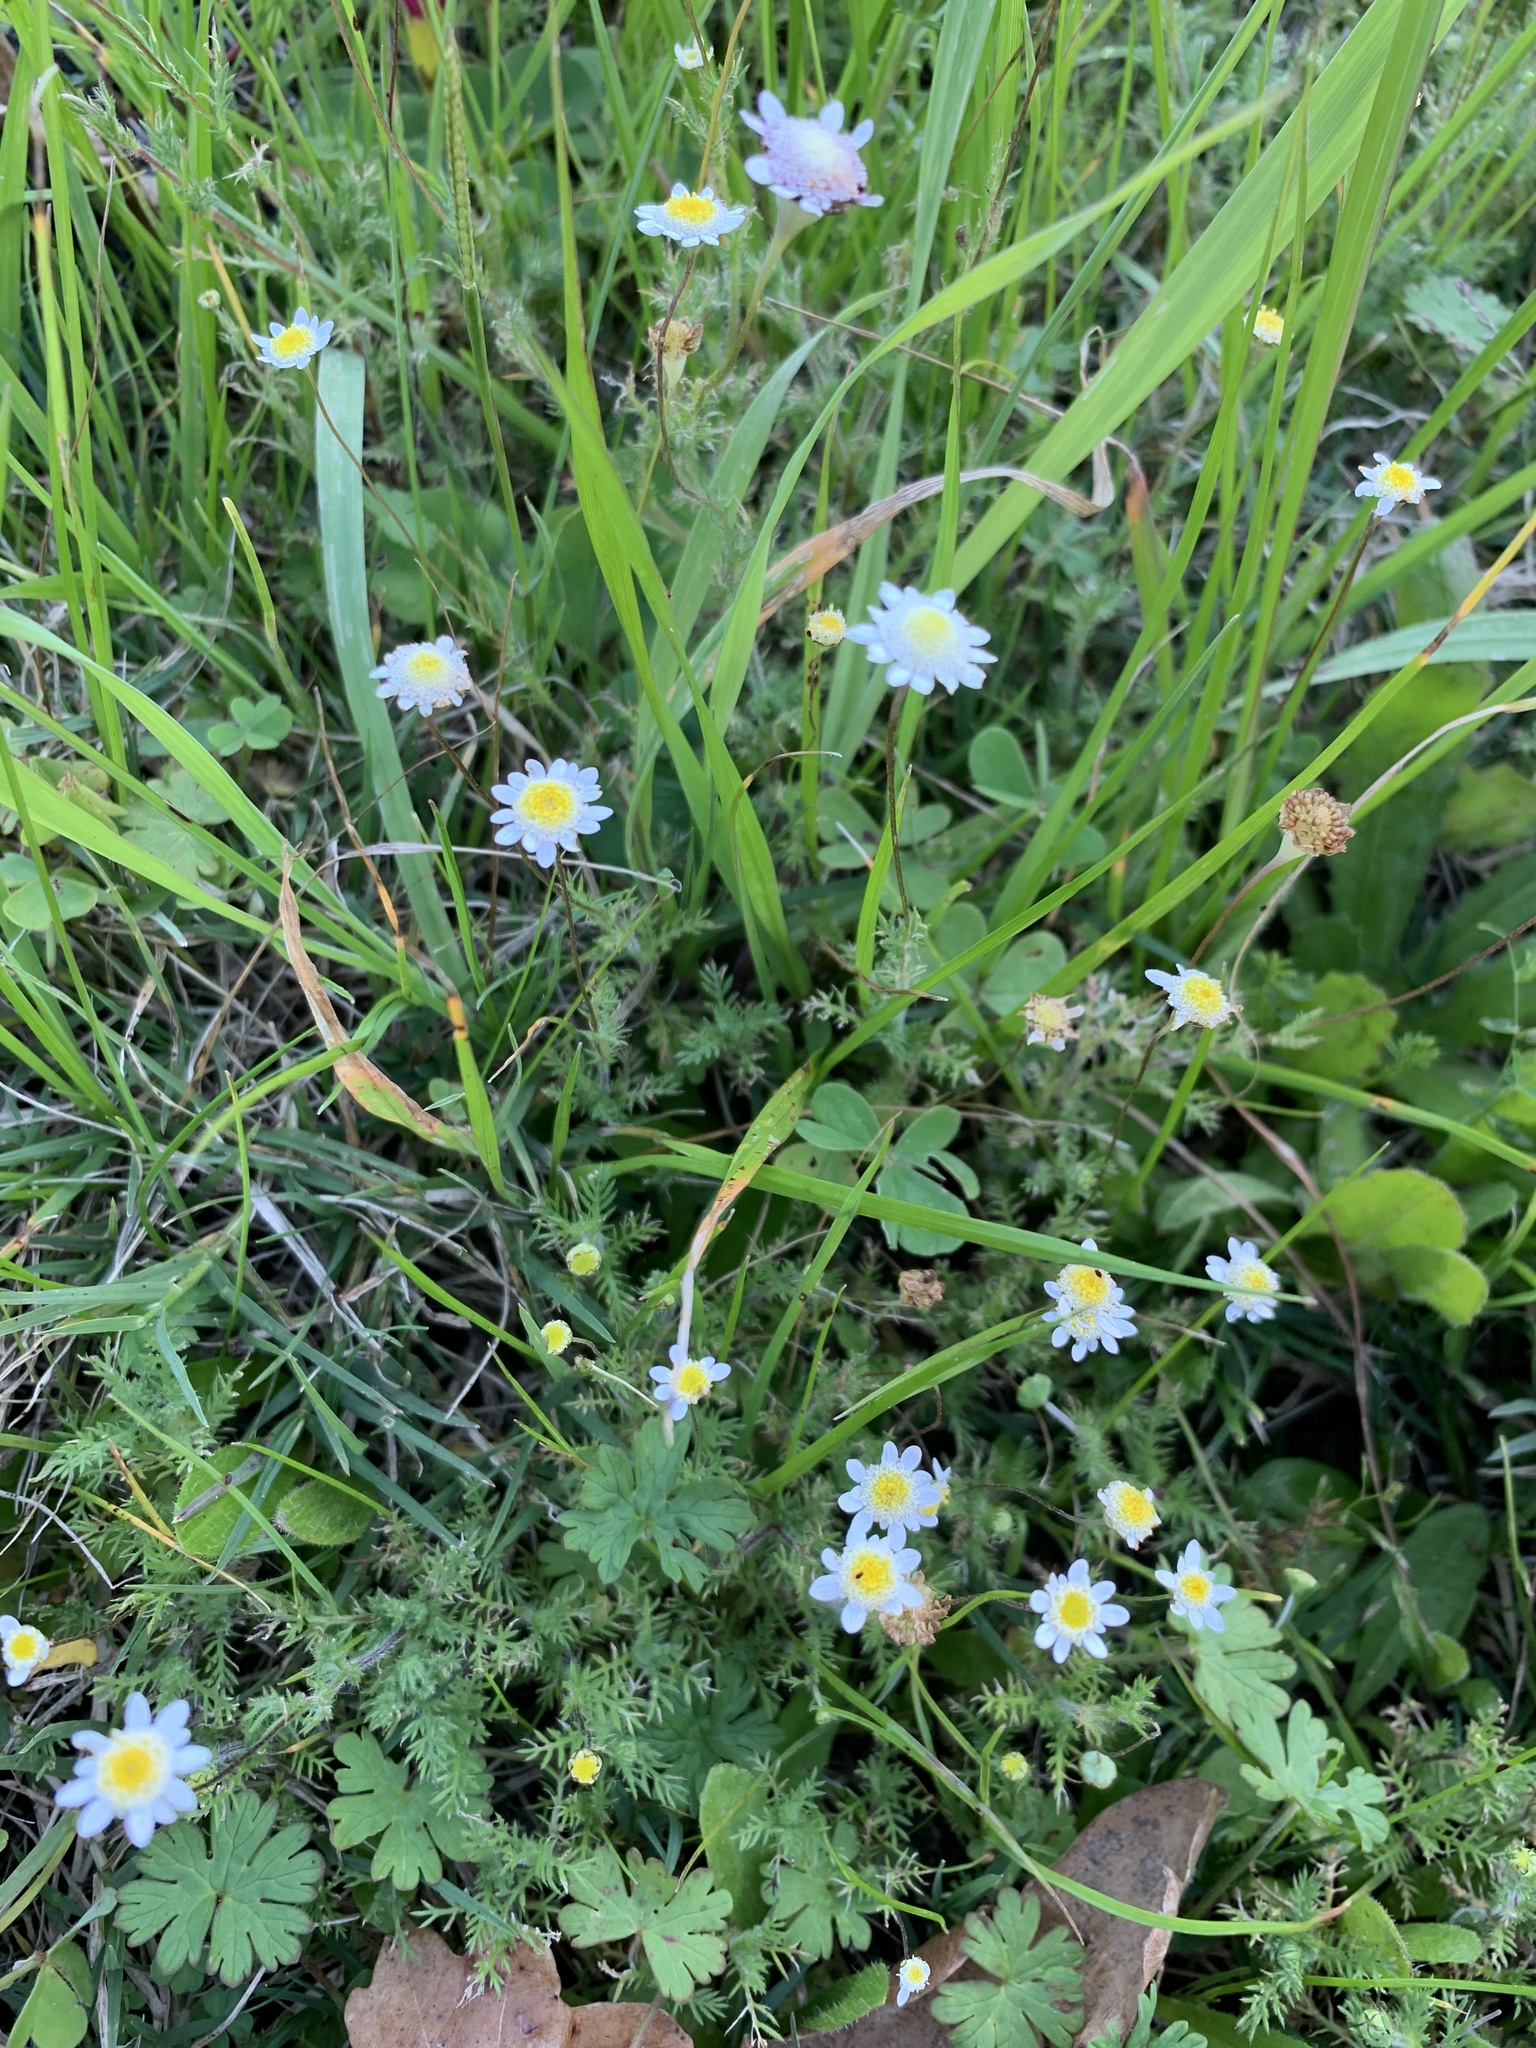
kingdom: Plantae
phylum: Tracheophyta
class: Magnoliopsida
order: Asterales
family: Asteraceae
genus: Cotula
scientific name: Cotula turbinata
